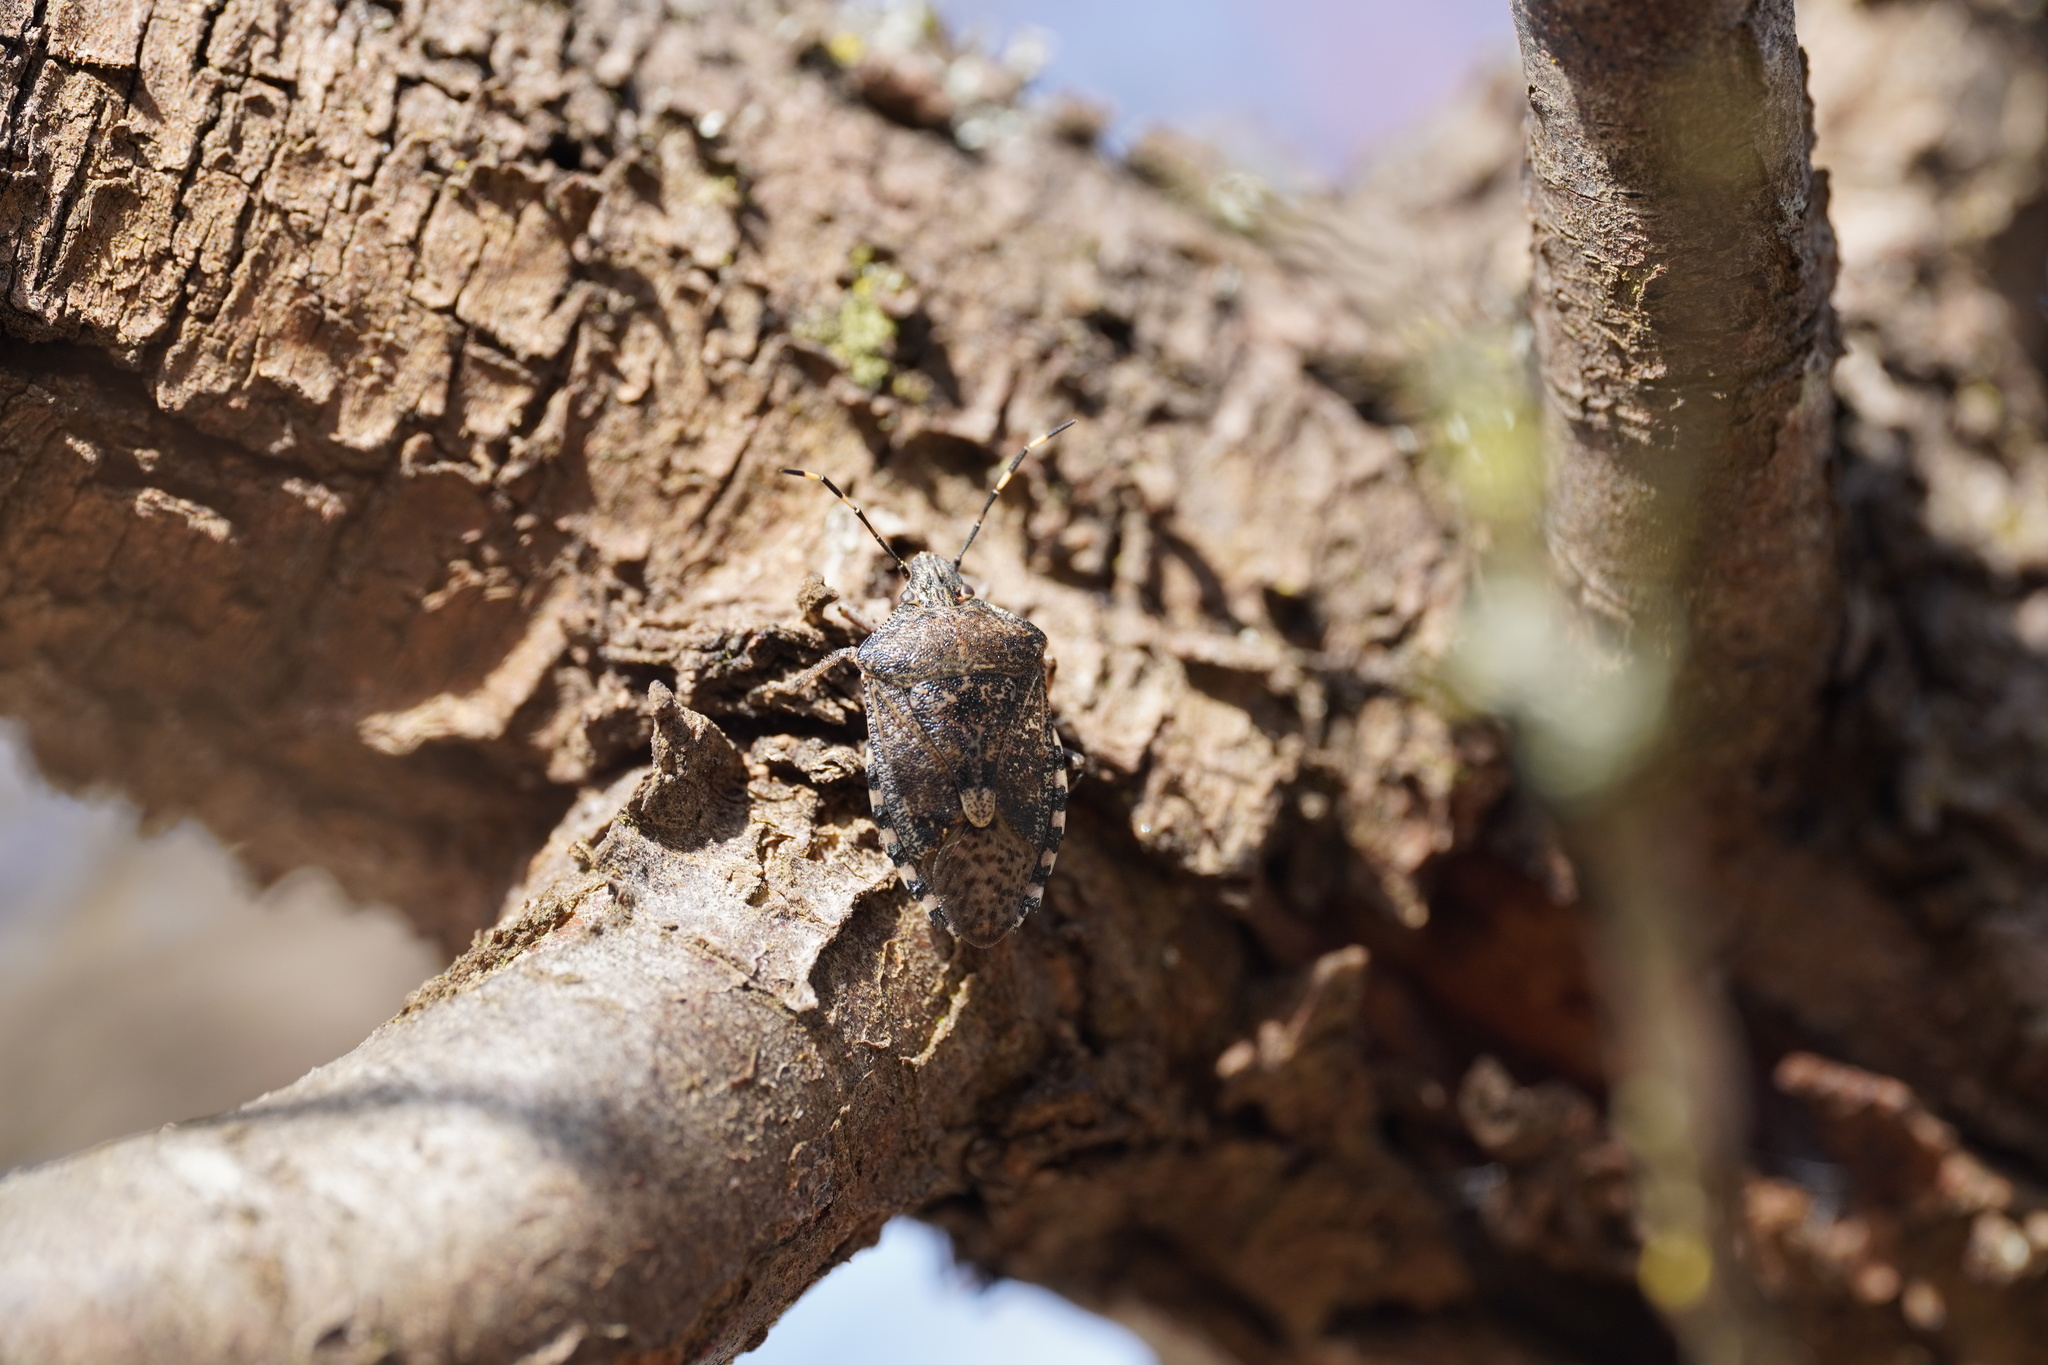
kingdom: Animalia
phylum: Arthropoda
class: Insecta
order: Hemiptera
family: Pentatomidae
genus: Rhaphigaster
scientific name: Rhaphigaster nebulosa
